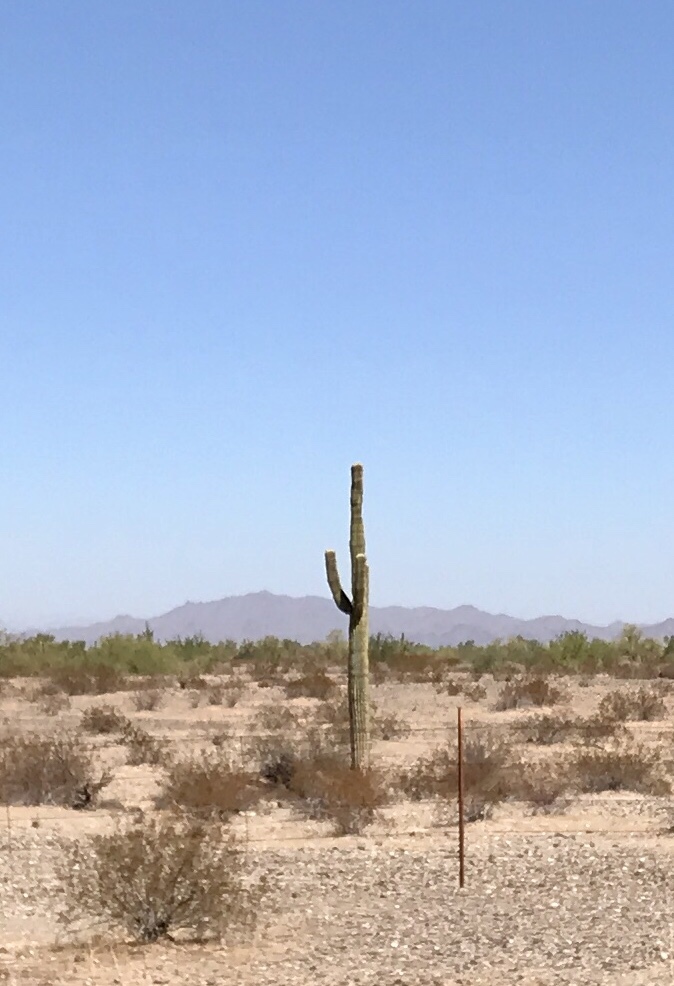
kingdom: Plantae
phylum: Tracheophyta
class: Magnoliopsida
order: Caryophyllales
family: Cactaceae
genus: Carnegiea
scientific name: Carnegiea gigantea
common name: Saguaro
